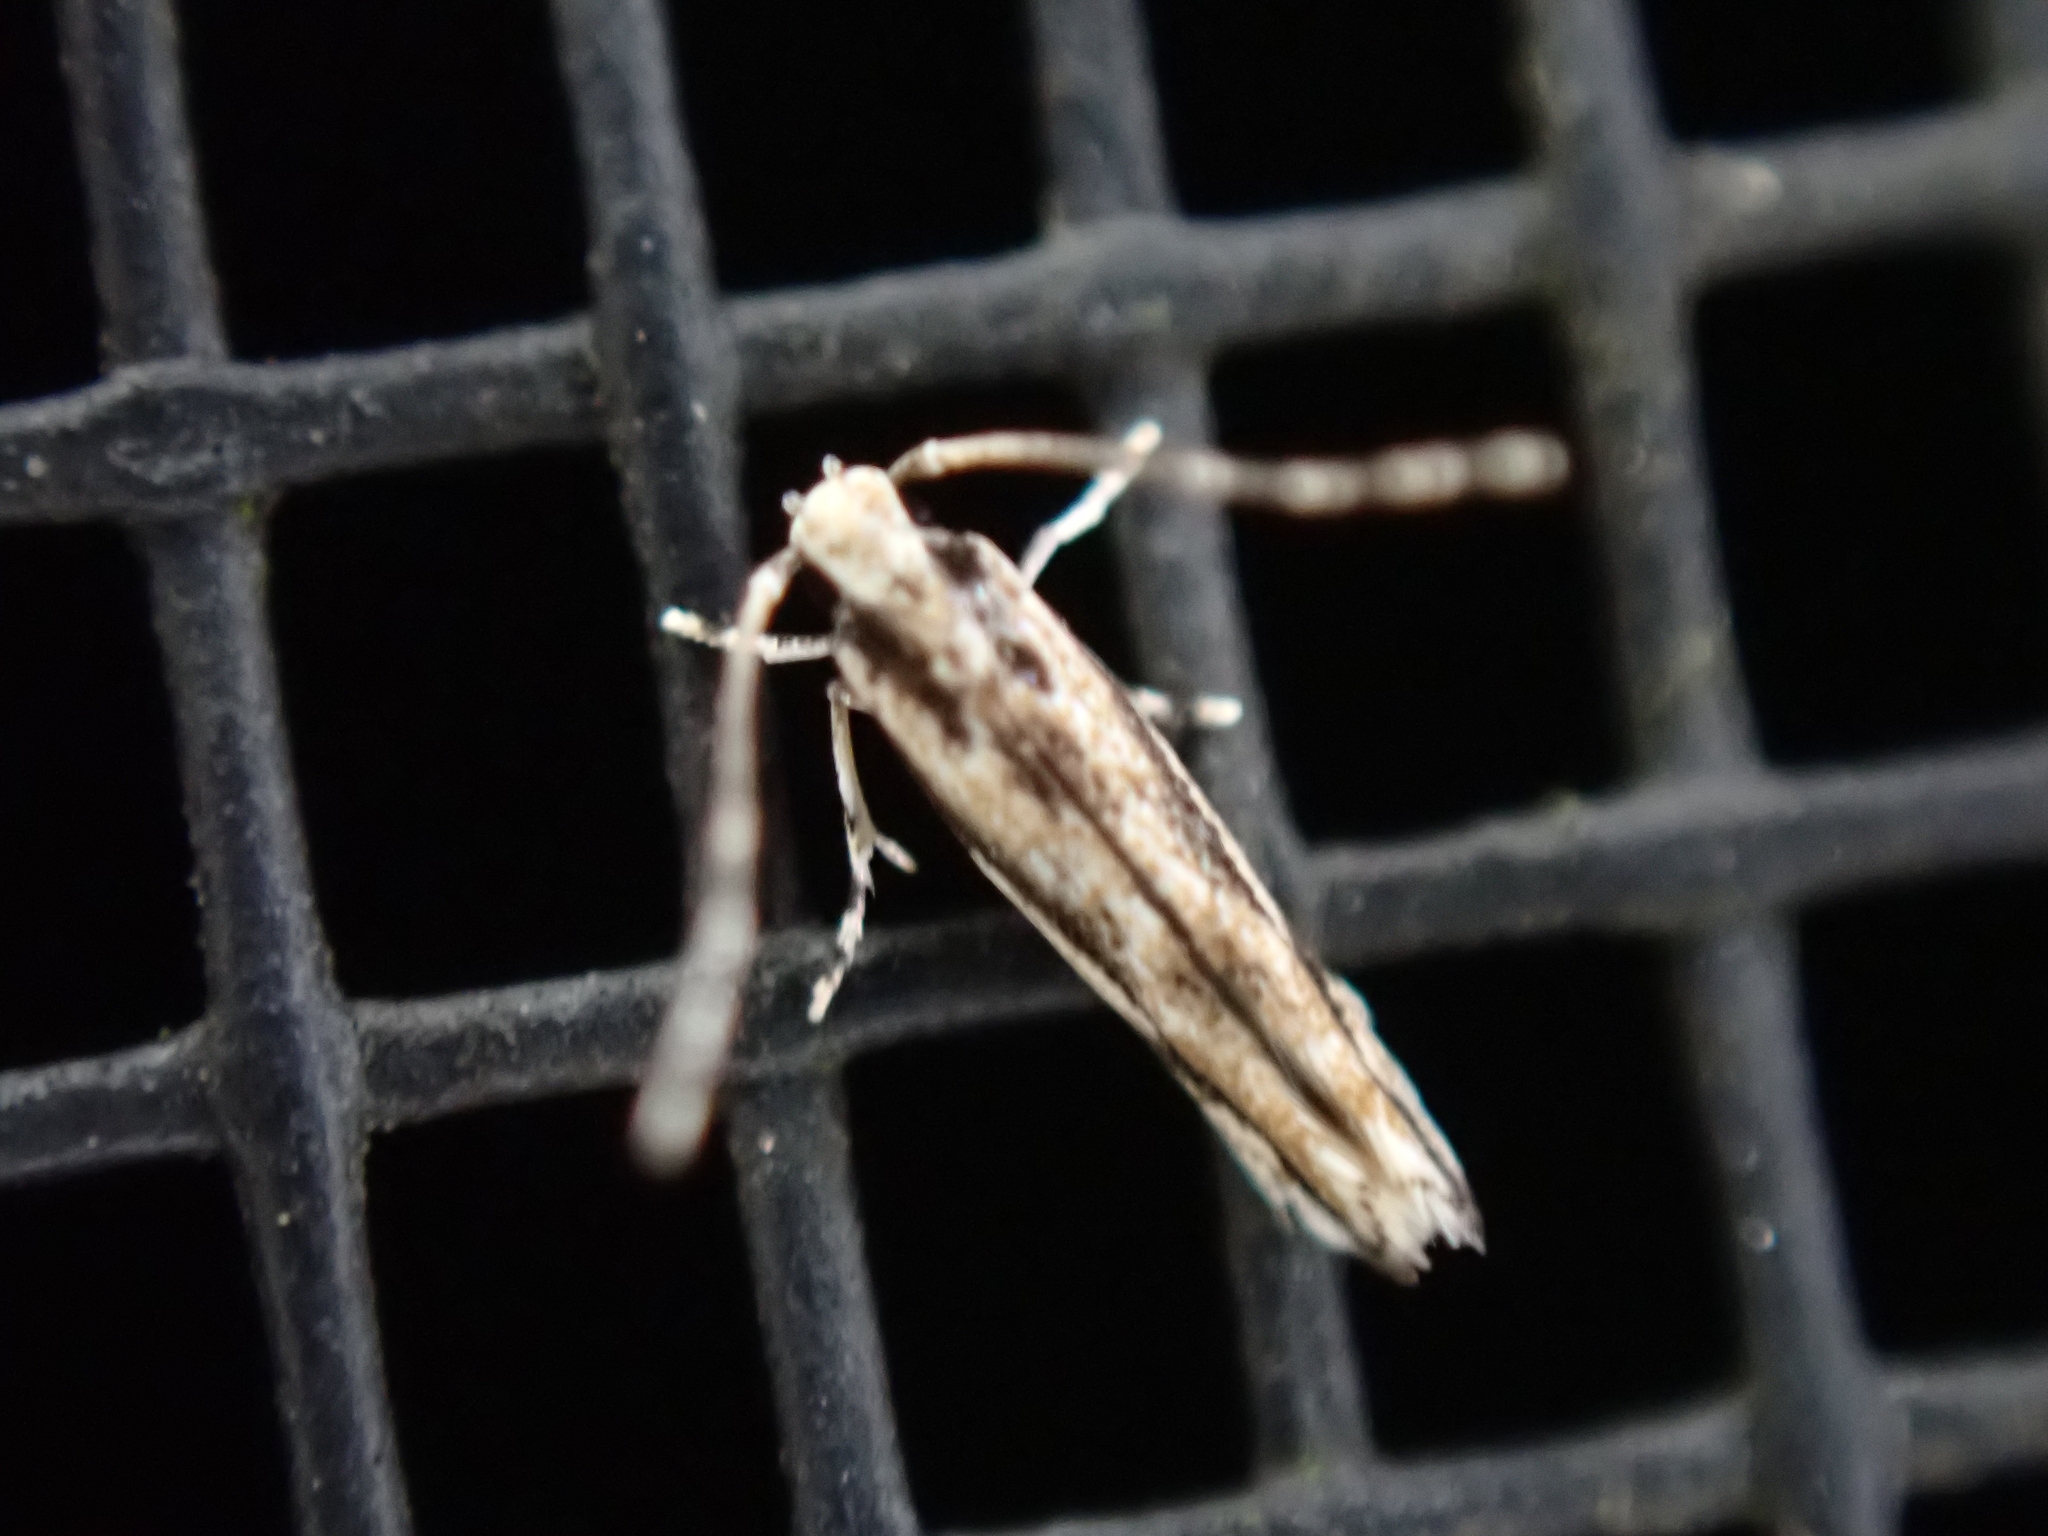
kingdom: Animalia
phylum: Arthropoda
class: Insecta
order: Lepidoptera
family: Cosmopterigidae
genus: Melanocinclis
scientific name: Melanocinclis lineigera
